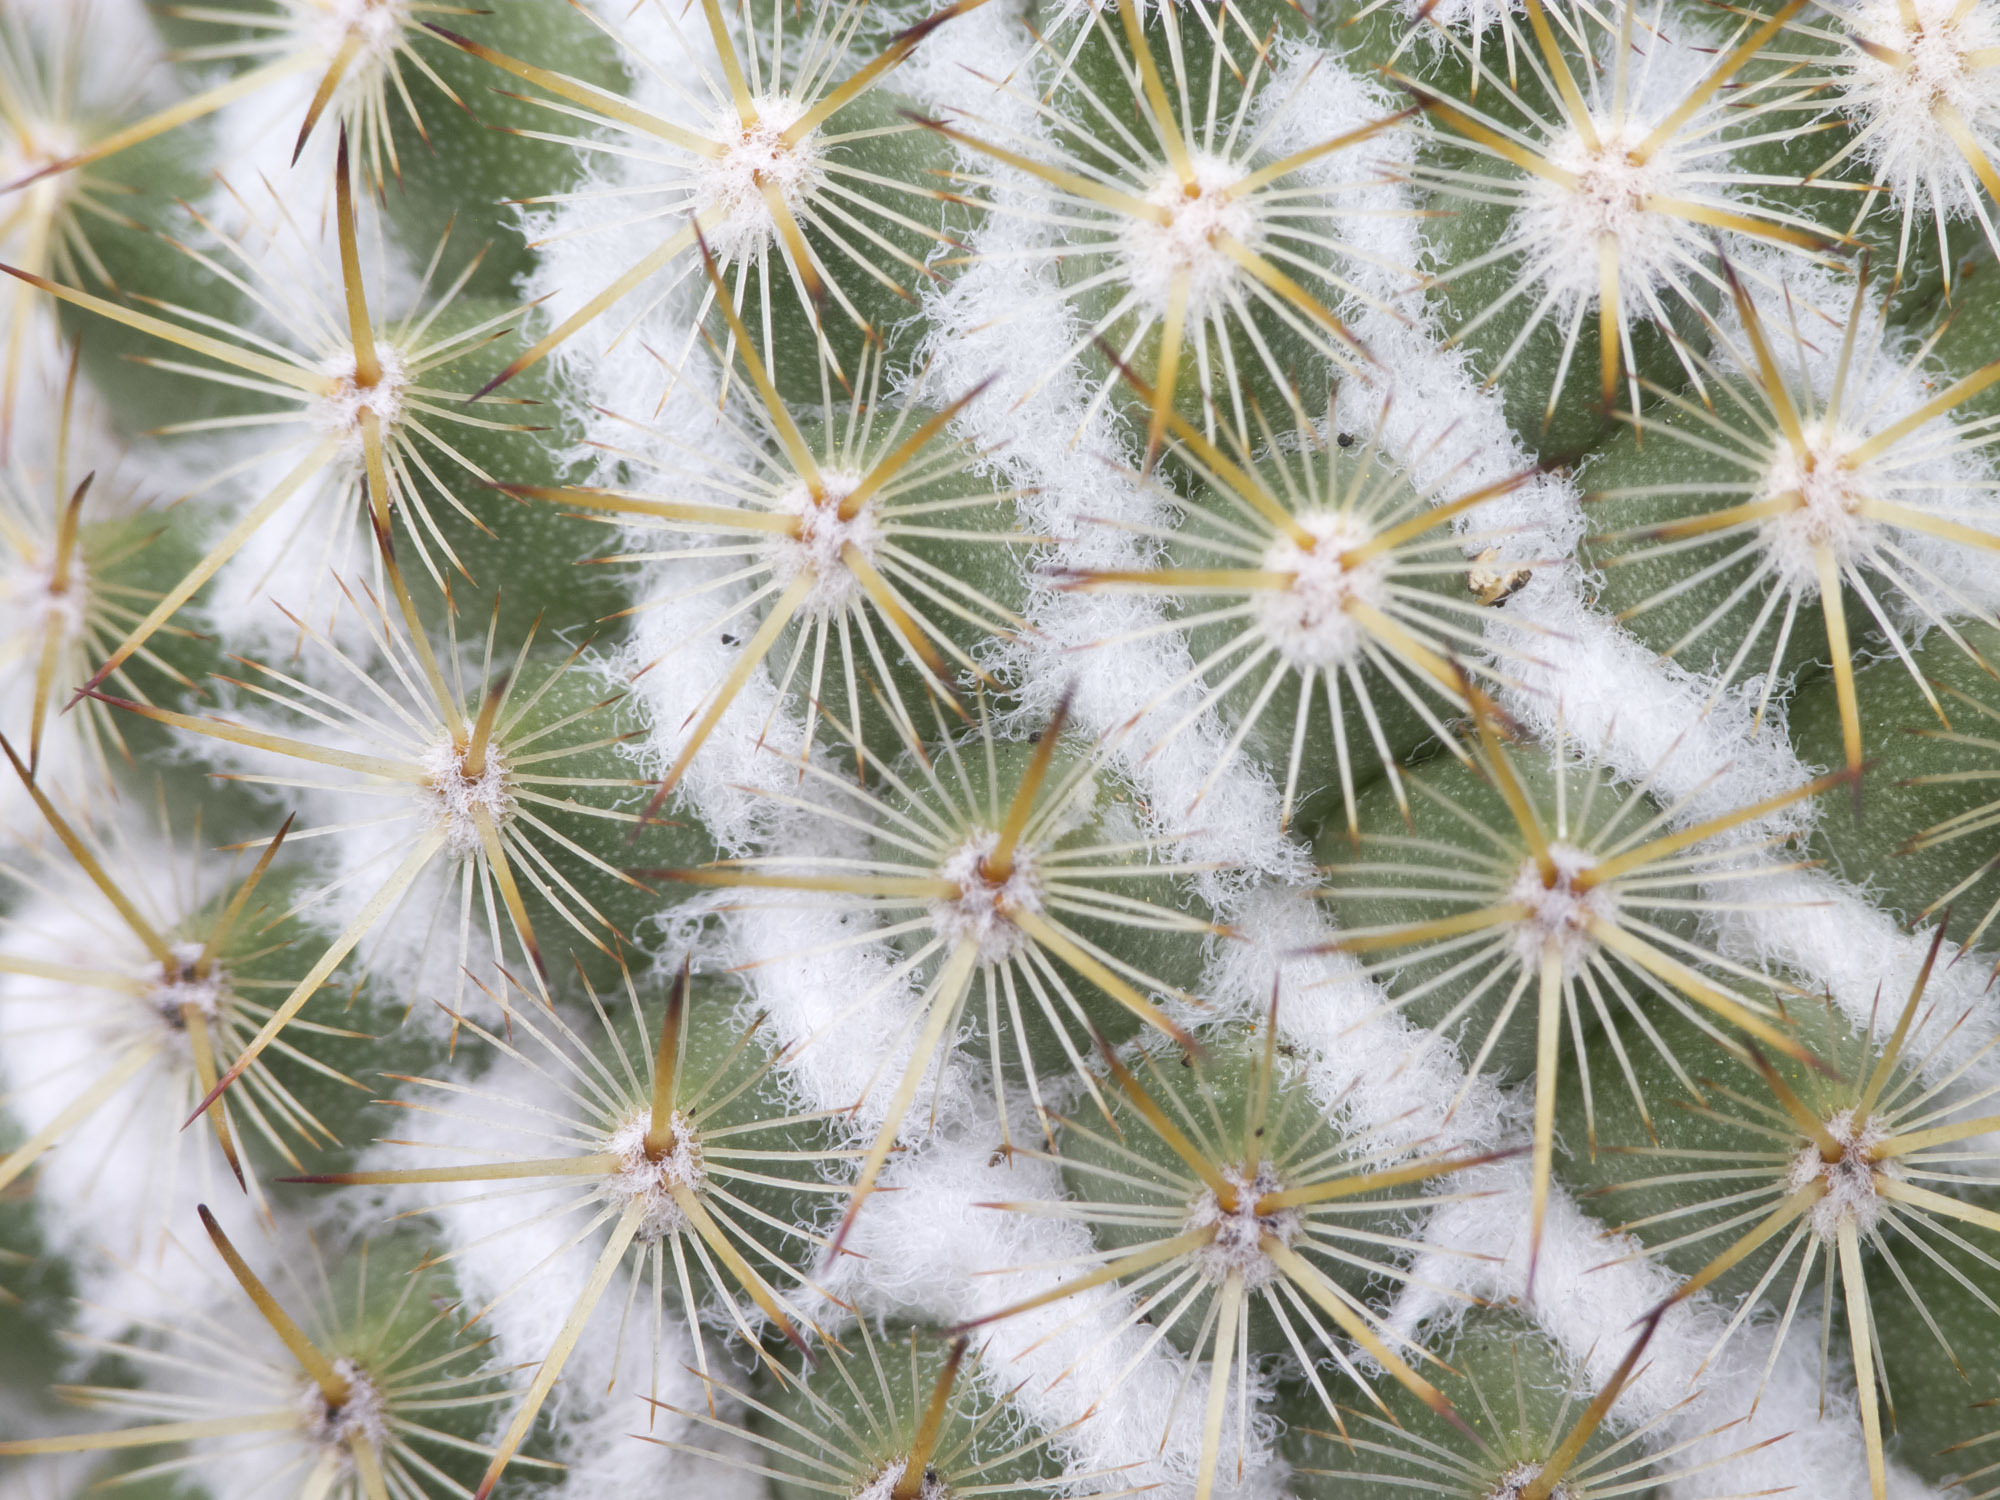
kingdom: Plantae
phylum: Tracheophyta
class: Magnoliopsida
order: Caryophyllales
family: Cactaceae
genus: Mammillaria
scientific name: Mammillaria columbiana
